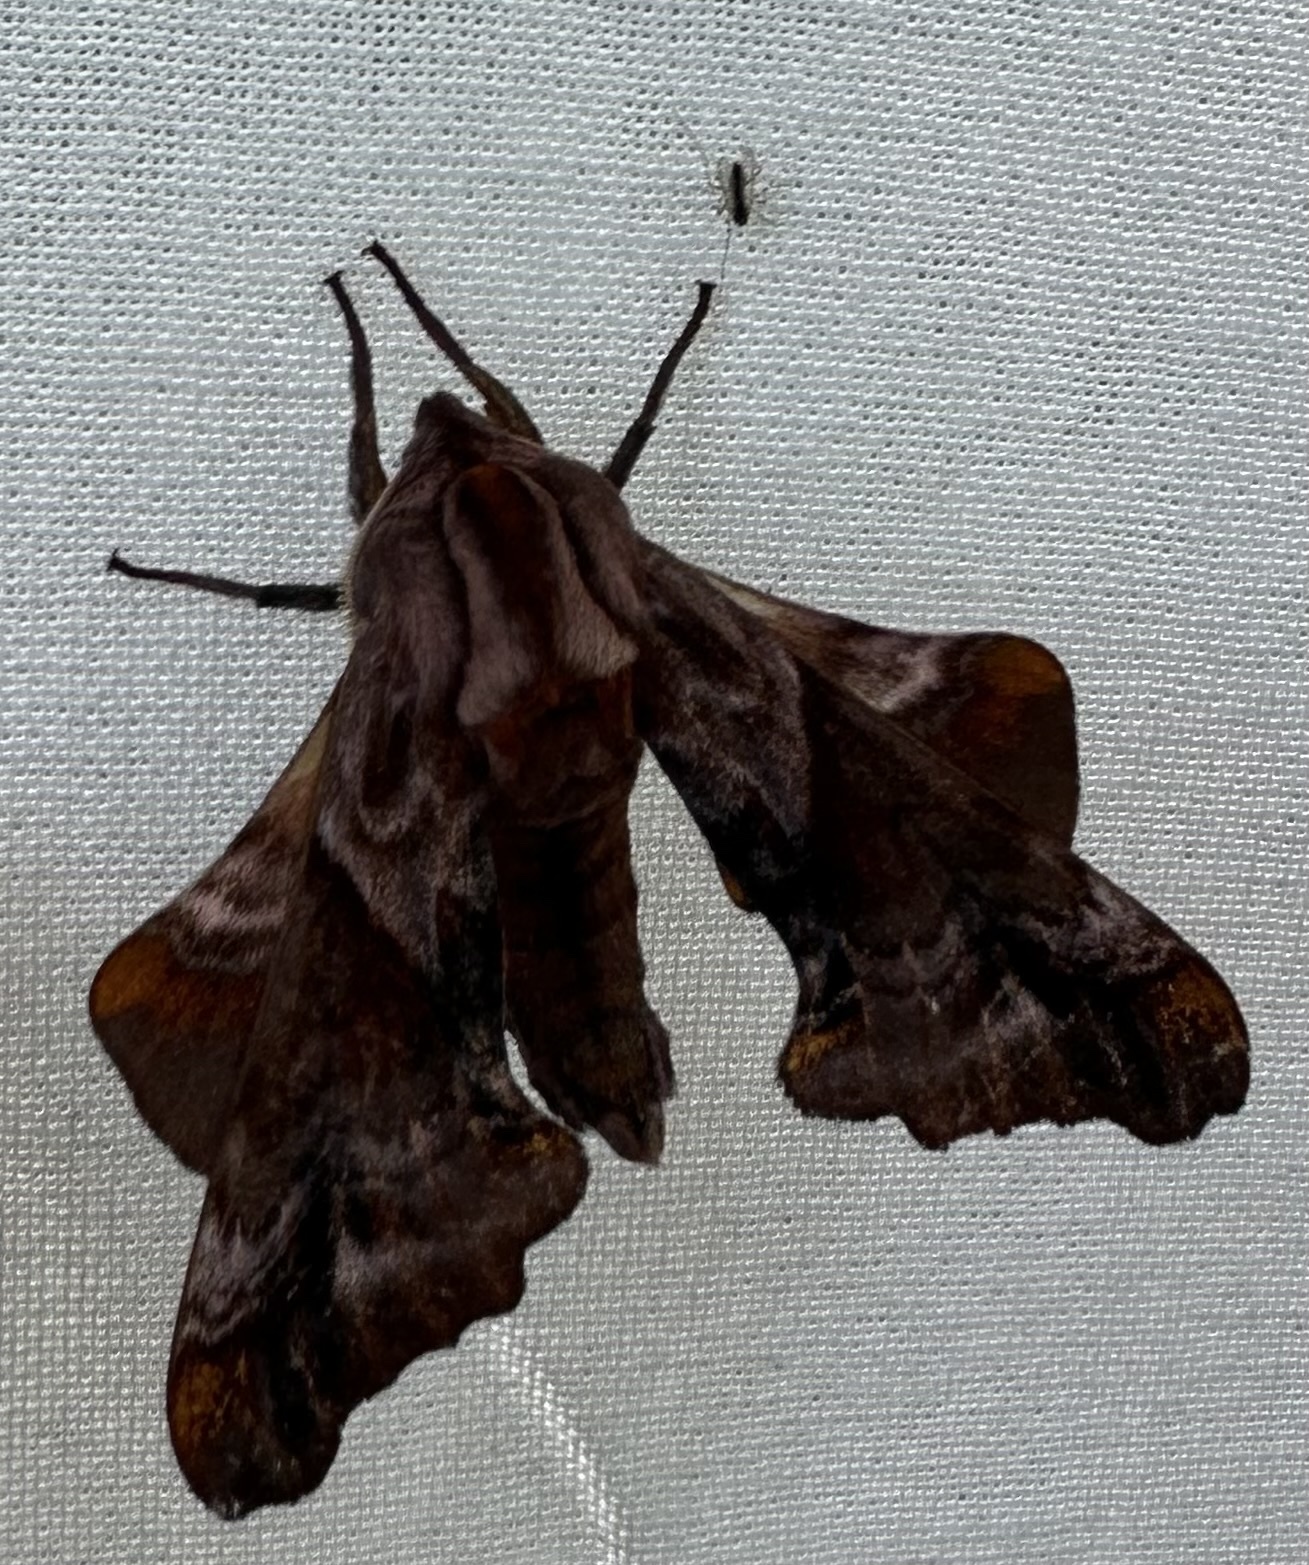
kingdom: Animalia
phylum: Arthropoda
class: Insecta
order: Lepidoptera
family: Sphingidae
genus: Paonias
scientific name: Paonias myops
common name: Small-eyed sphinx
